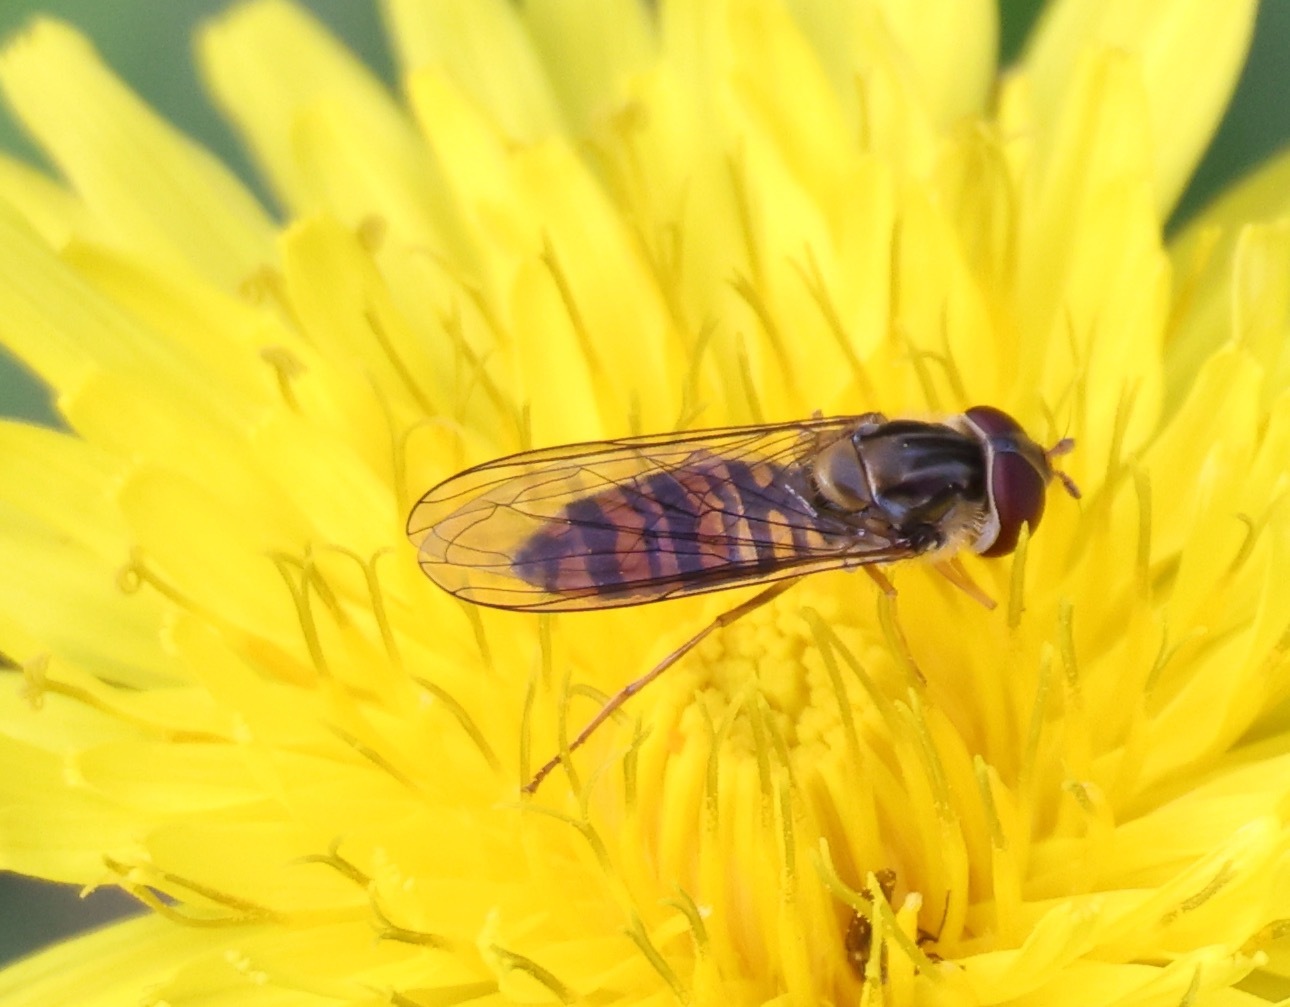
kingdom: Animalia
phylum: Arthropoda
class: Insecta
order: Diptera
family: Syrphidae
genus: Episyrphus
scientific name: Episyrphus balteatus
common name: Marmalade hoverfly
